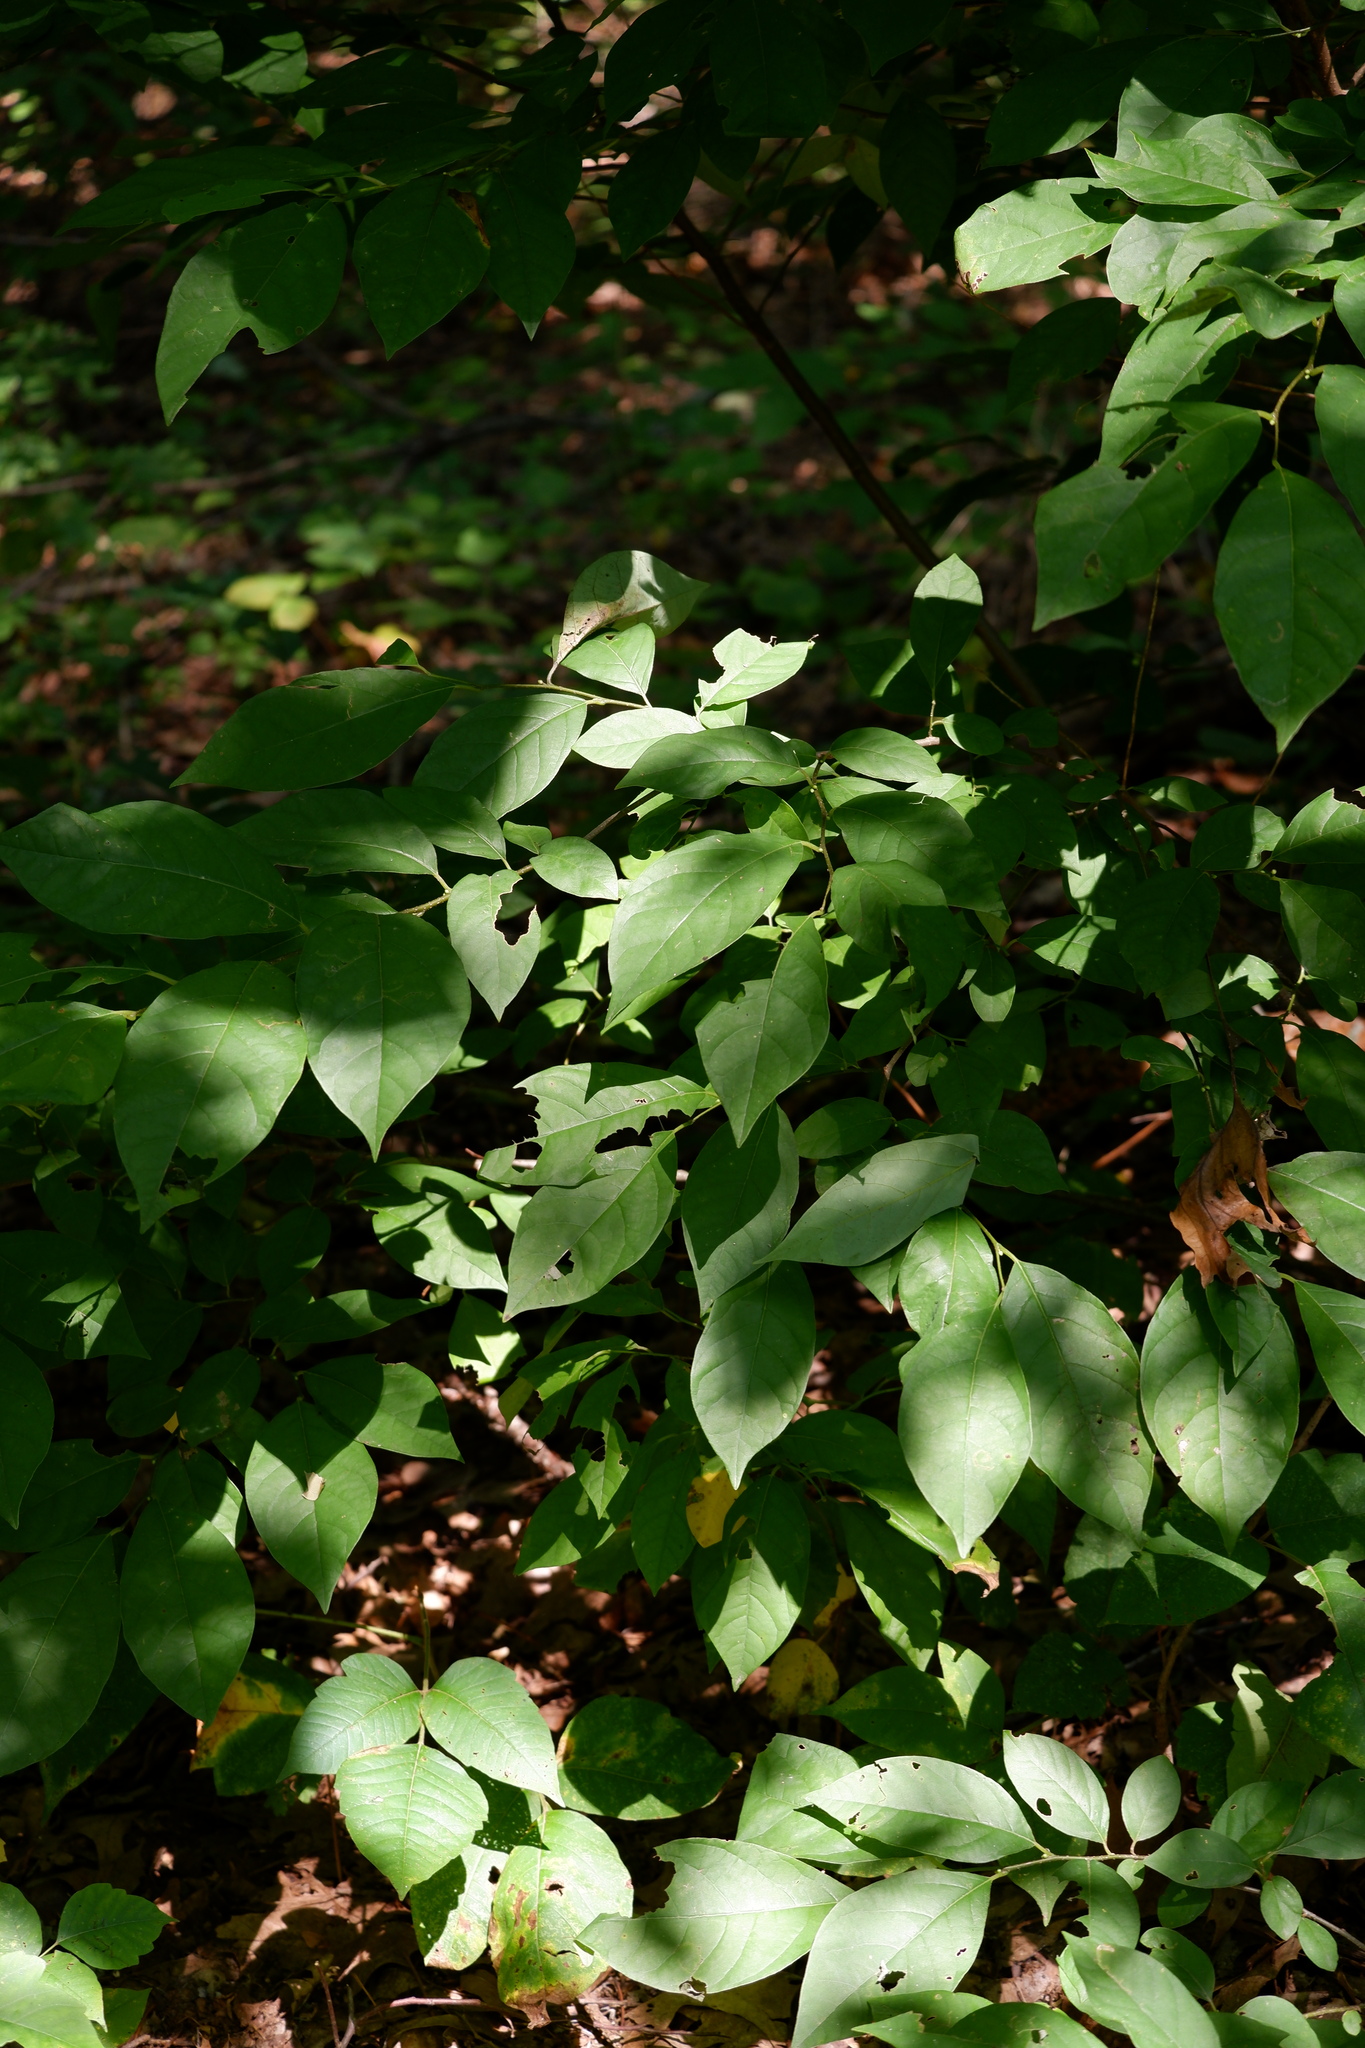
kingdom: Plantae
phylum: Tracheophyta
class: Magnoliopsida
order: Laurales
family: Lauraceae
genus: Lindera
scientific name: Lindera benzoin
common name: Spicebush
